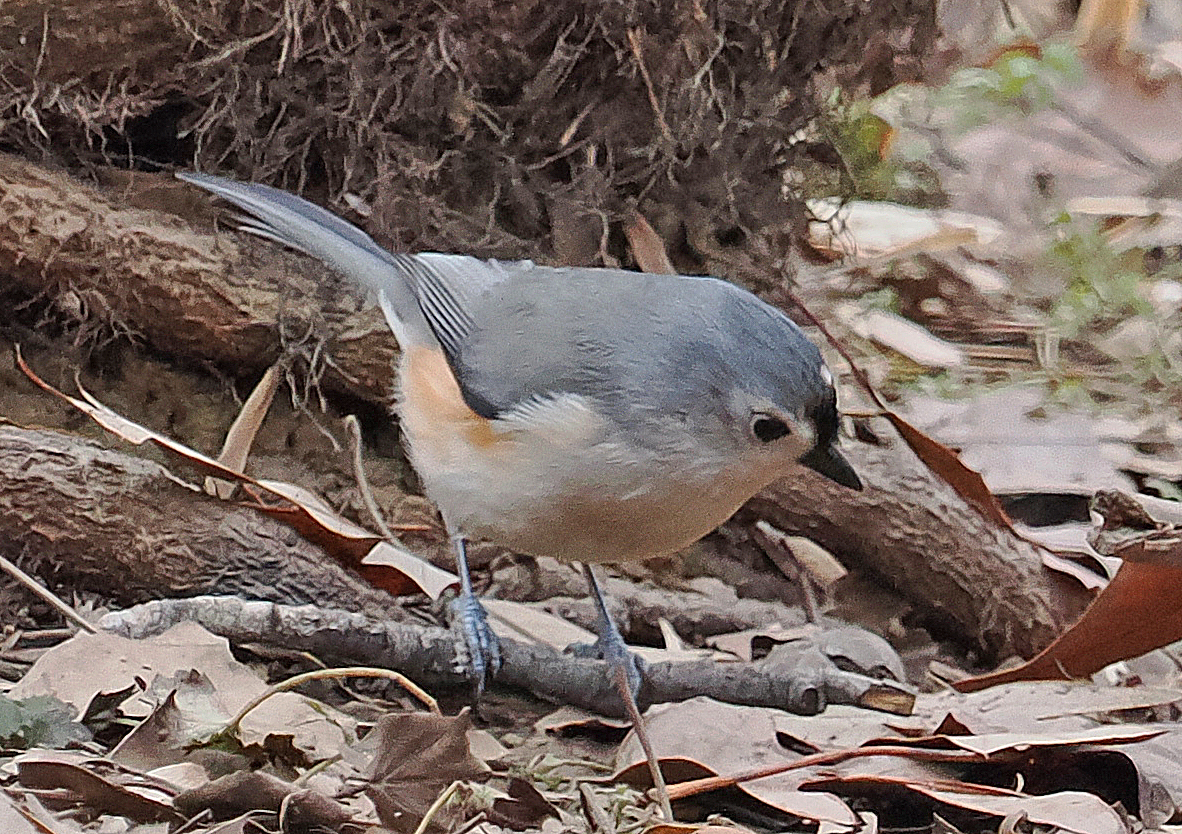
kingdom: Animalia
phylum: Chordata
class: Aves
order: Passeriformes
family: Paridae
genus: Baeolophus
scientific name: Baeolophus bicolor
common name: Tufted titmouse
